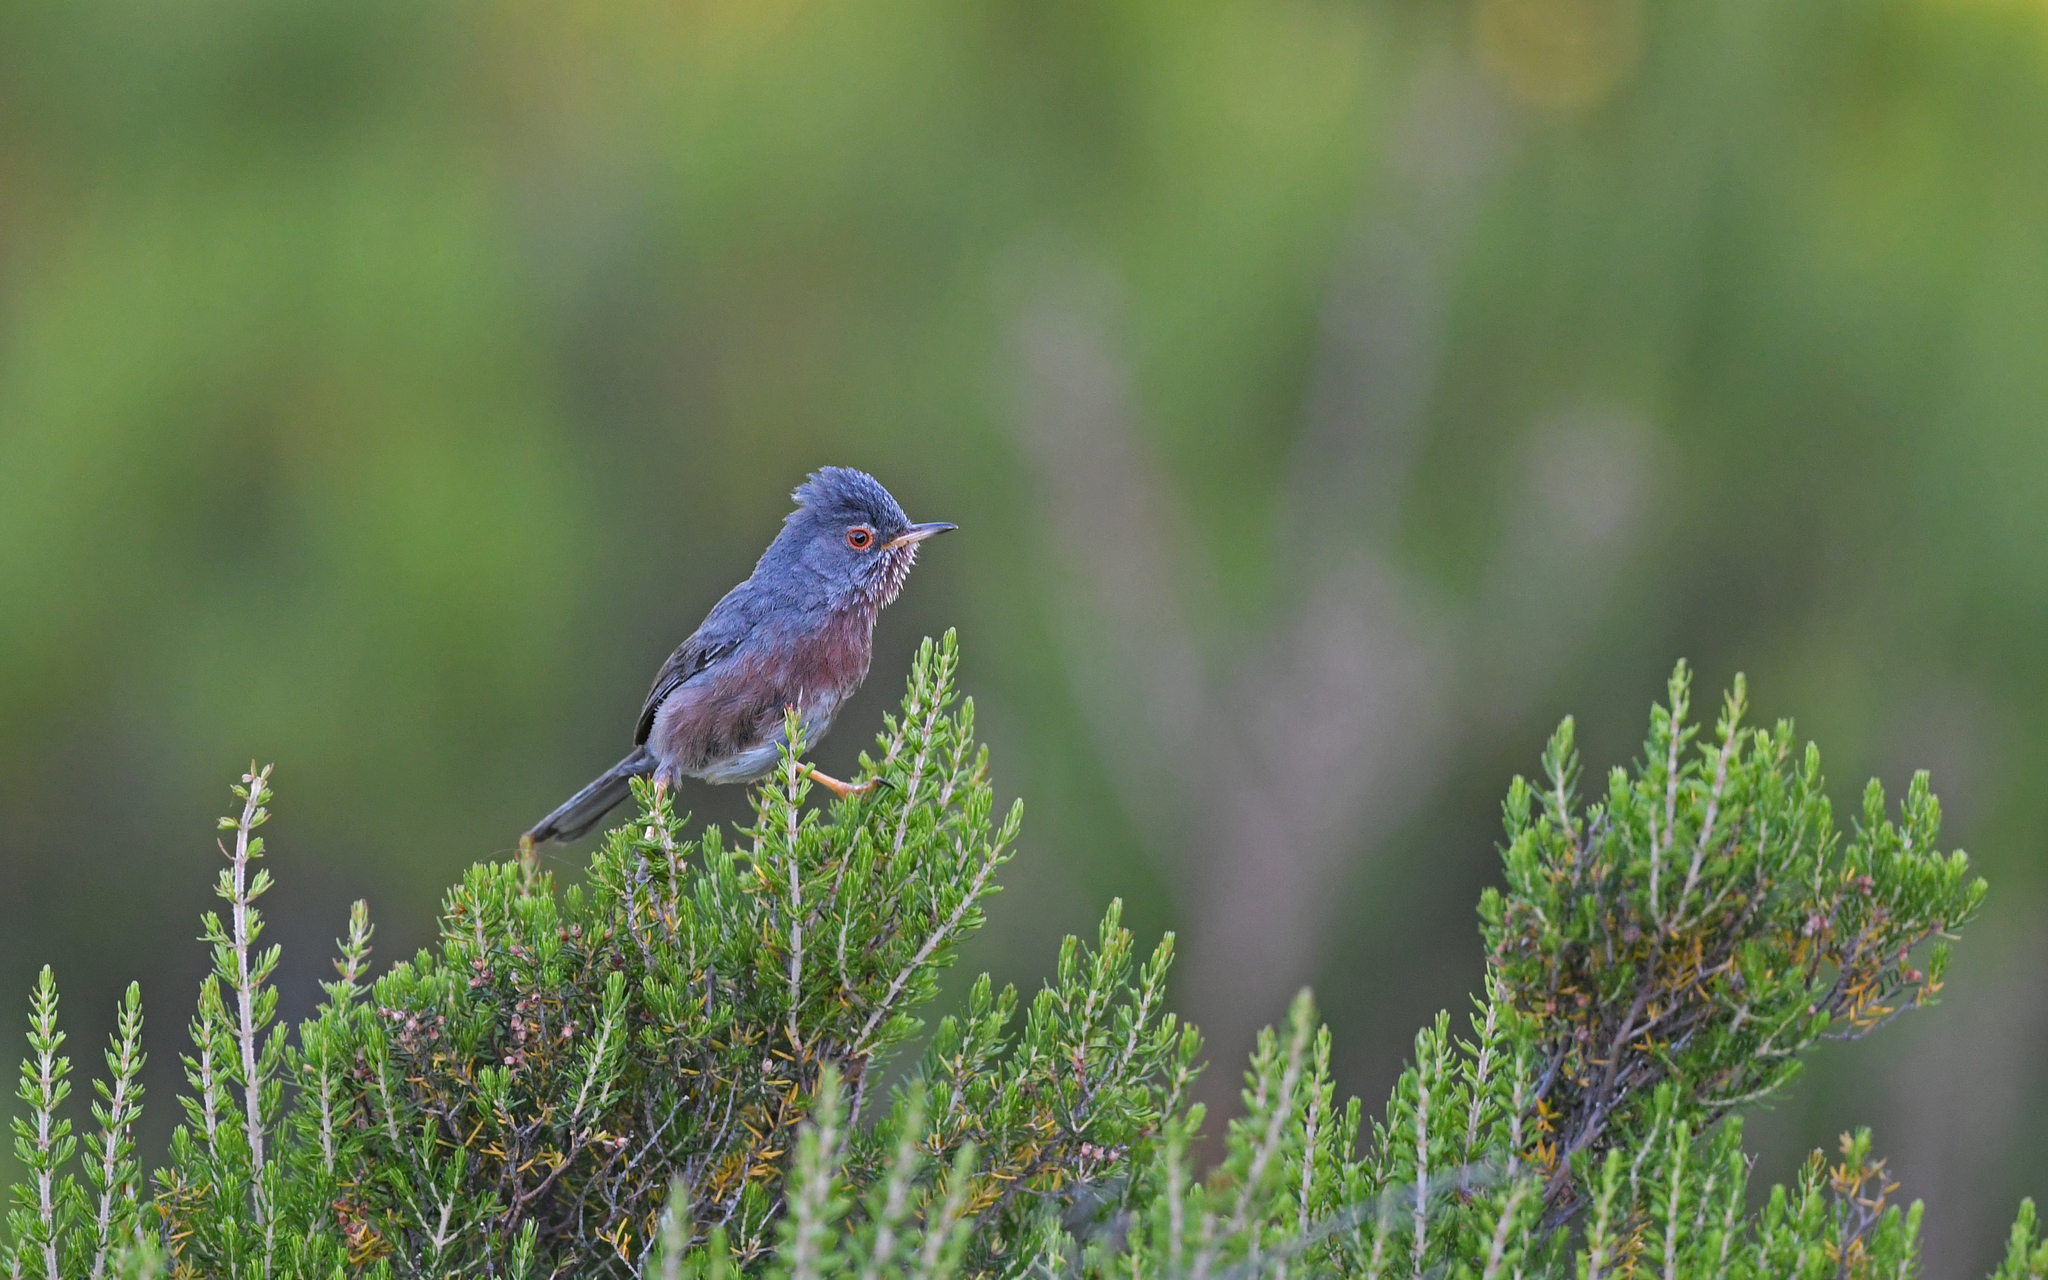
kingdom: Animalia
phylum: Chordata
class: Aves
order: Passeriformes
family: Sylviidae
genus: Sylvia
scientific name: Sylvia undata
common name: Dartford warbler
